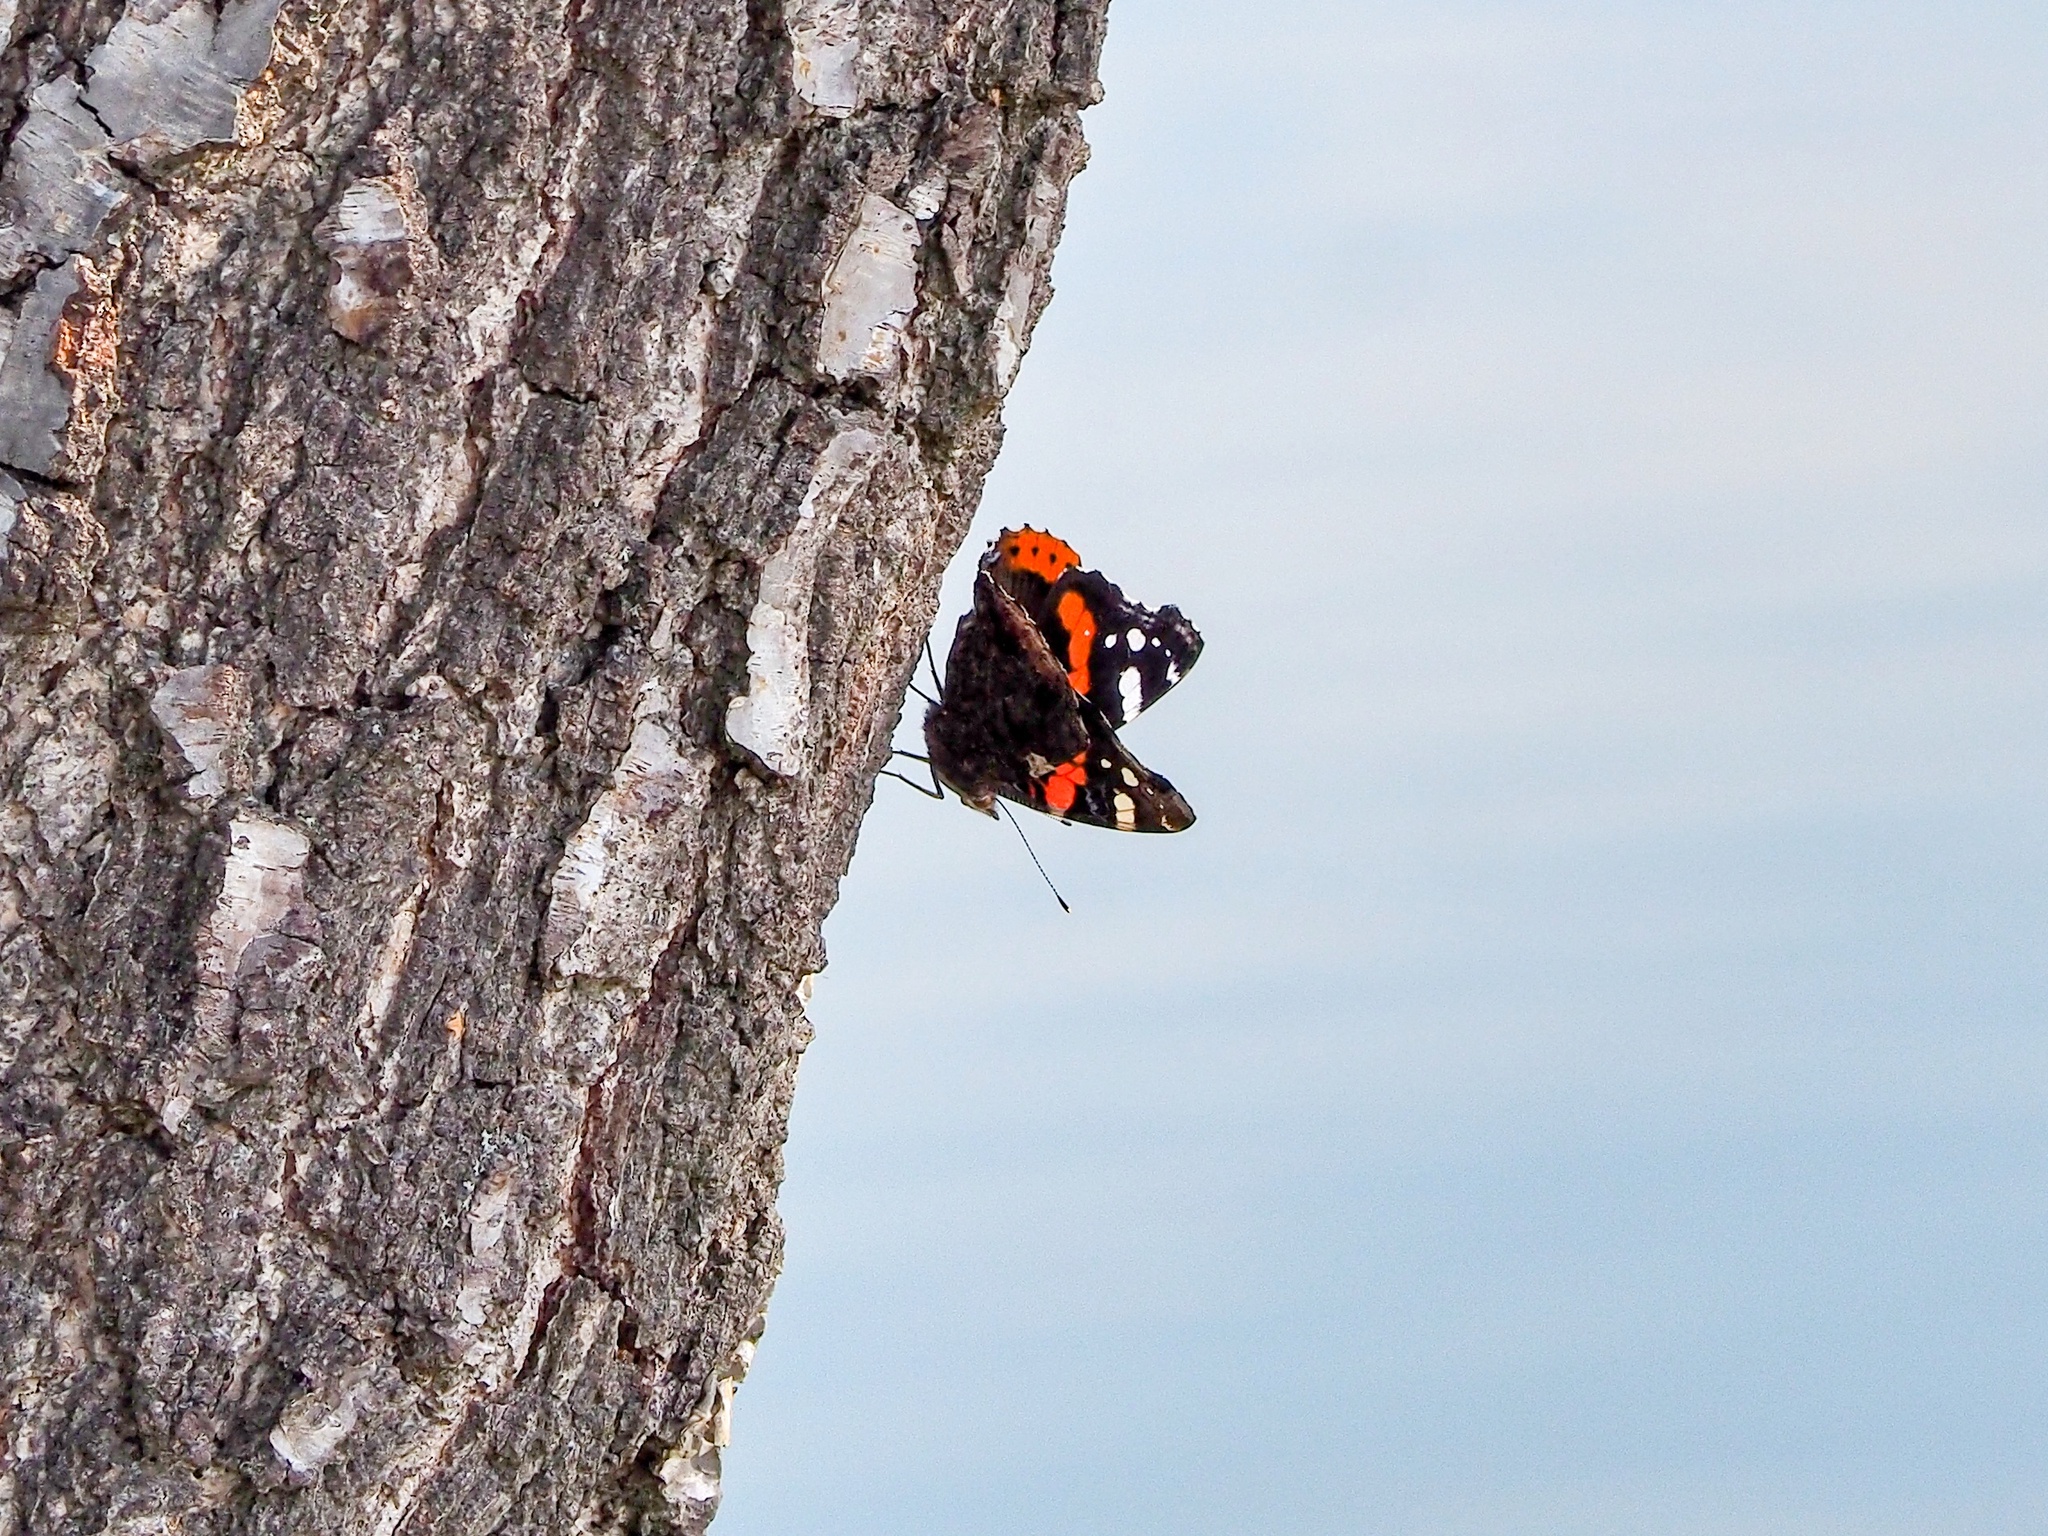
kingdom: Animalia
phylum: Arthropoda
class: Insecta
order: Lepidoptera
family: Nymphalidae
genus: Vanessa
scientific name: Vanessa atalanta
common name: Red admiral
